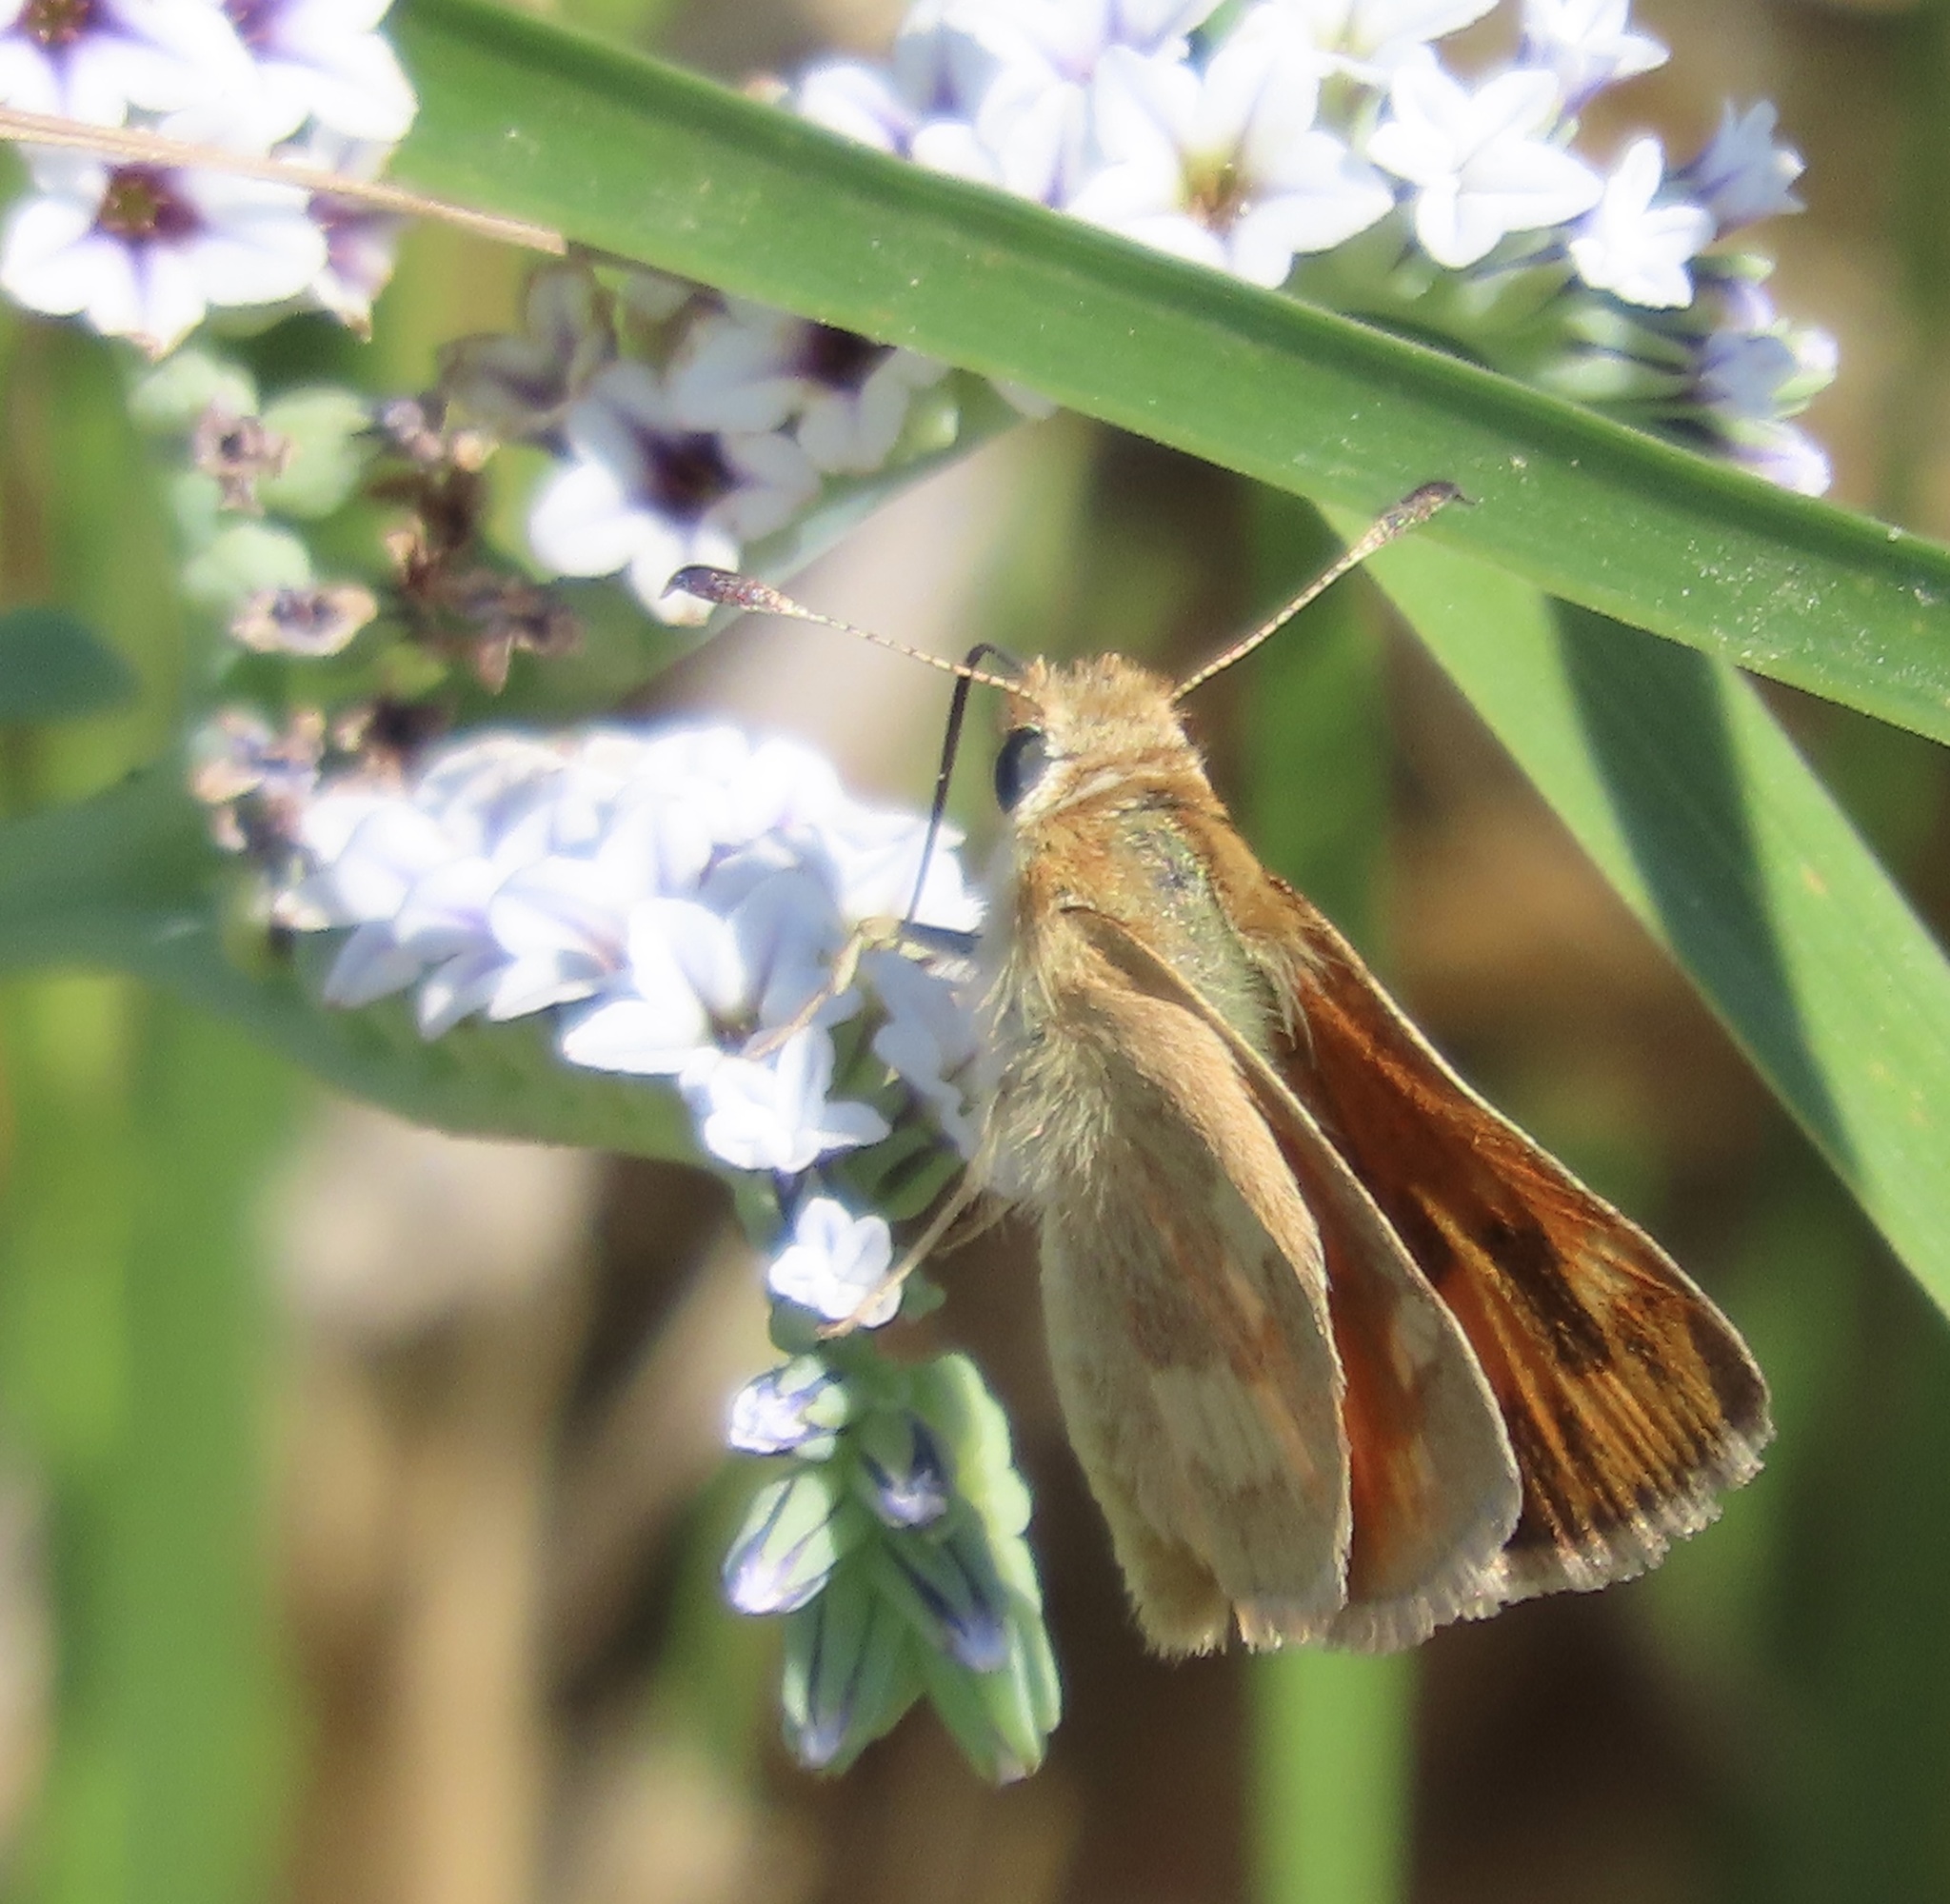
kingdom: Animalia
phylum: Arthropoda
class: Insecta
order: Lepidoptera
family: Hesperiidae
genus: Ochlodes
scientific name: Ochlodes sylvanoides
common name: Woodland skipper
